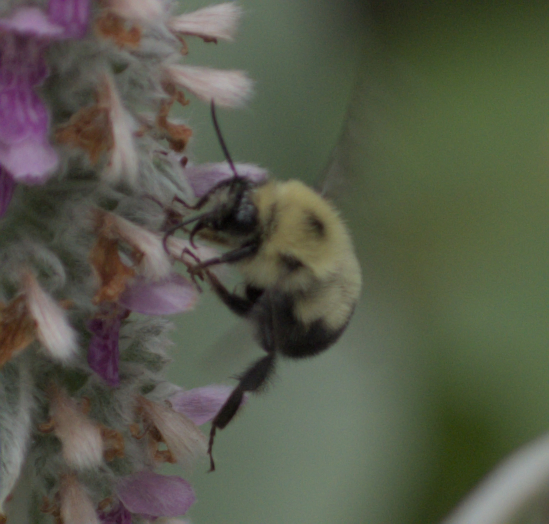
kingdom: Animalia
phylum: Arthropoda
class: Insecta
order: Hymenoptera
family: Apidae
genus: Bombus
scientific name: Bombus bimaculatus
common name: Two-spotted bumble bee
